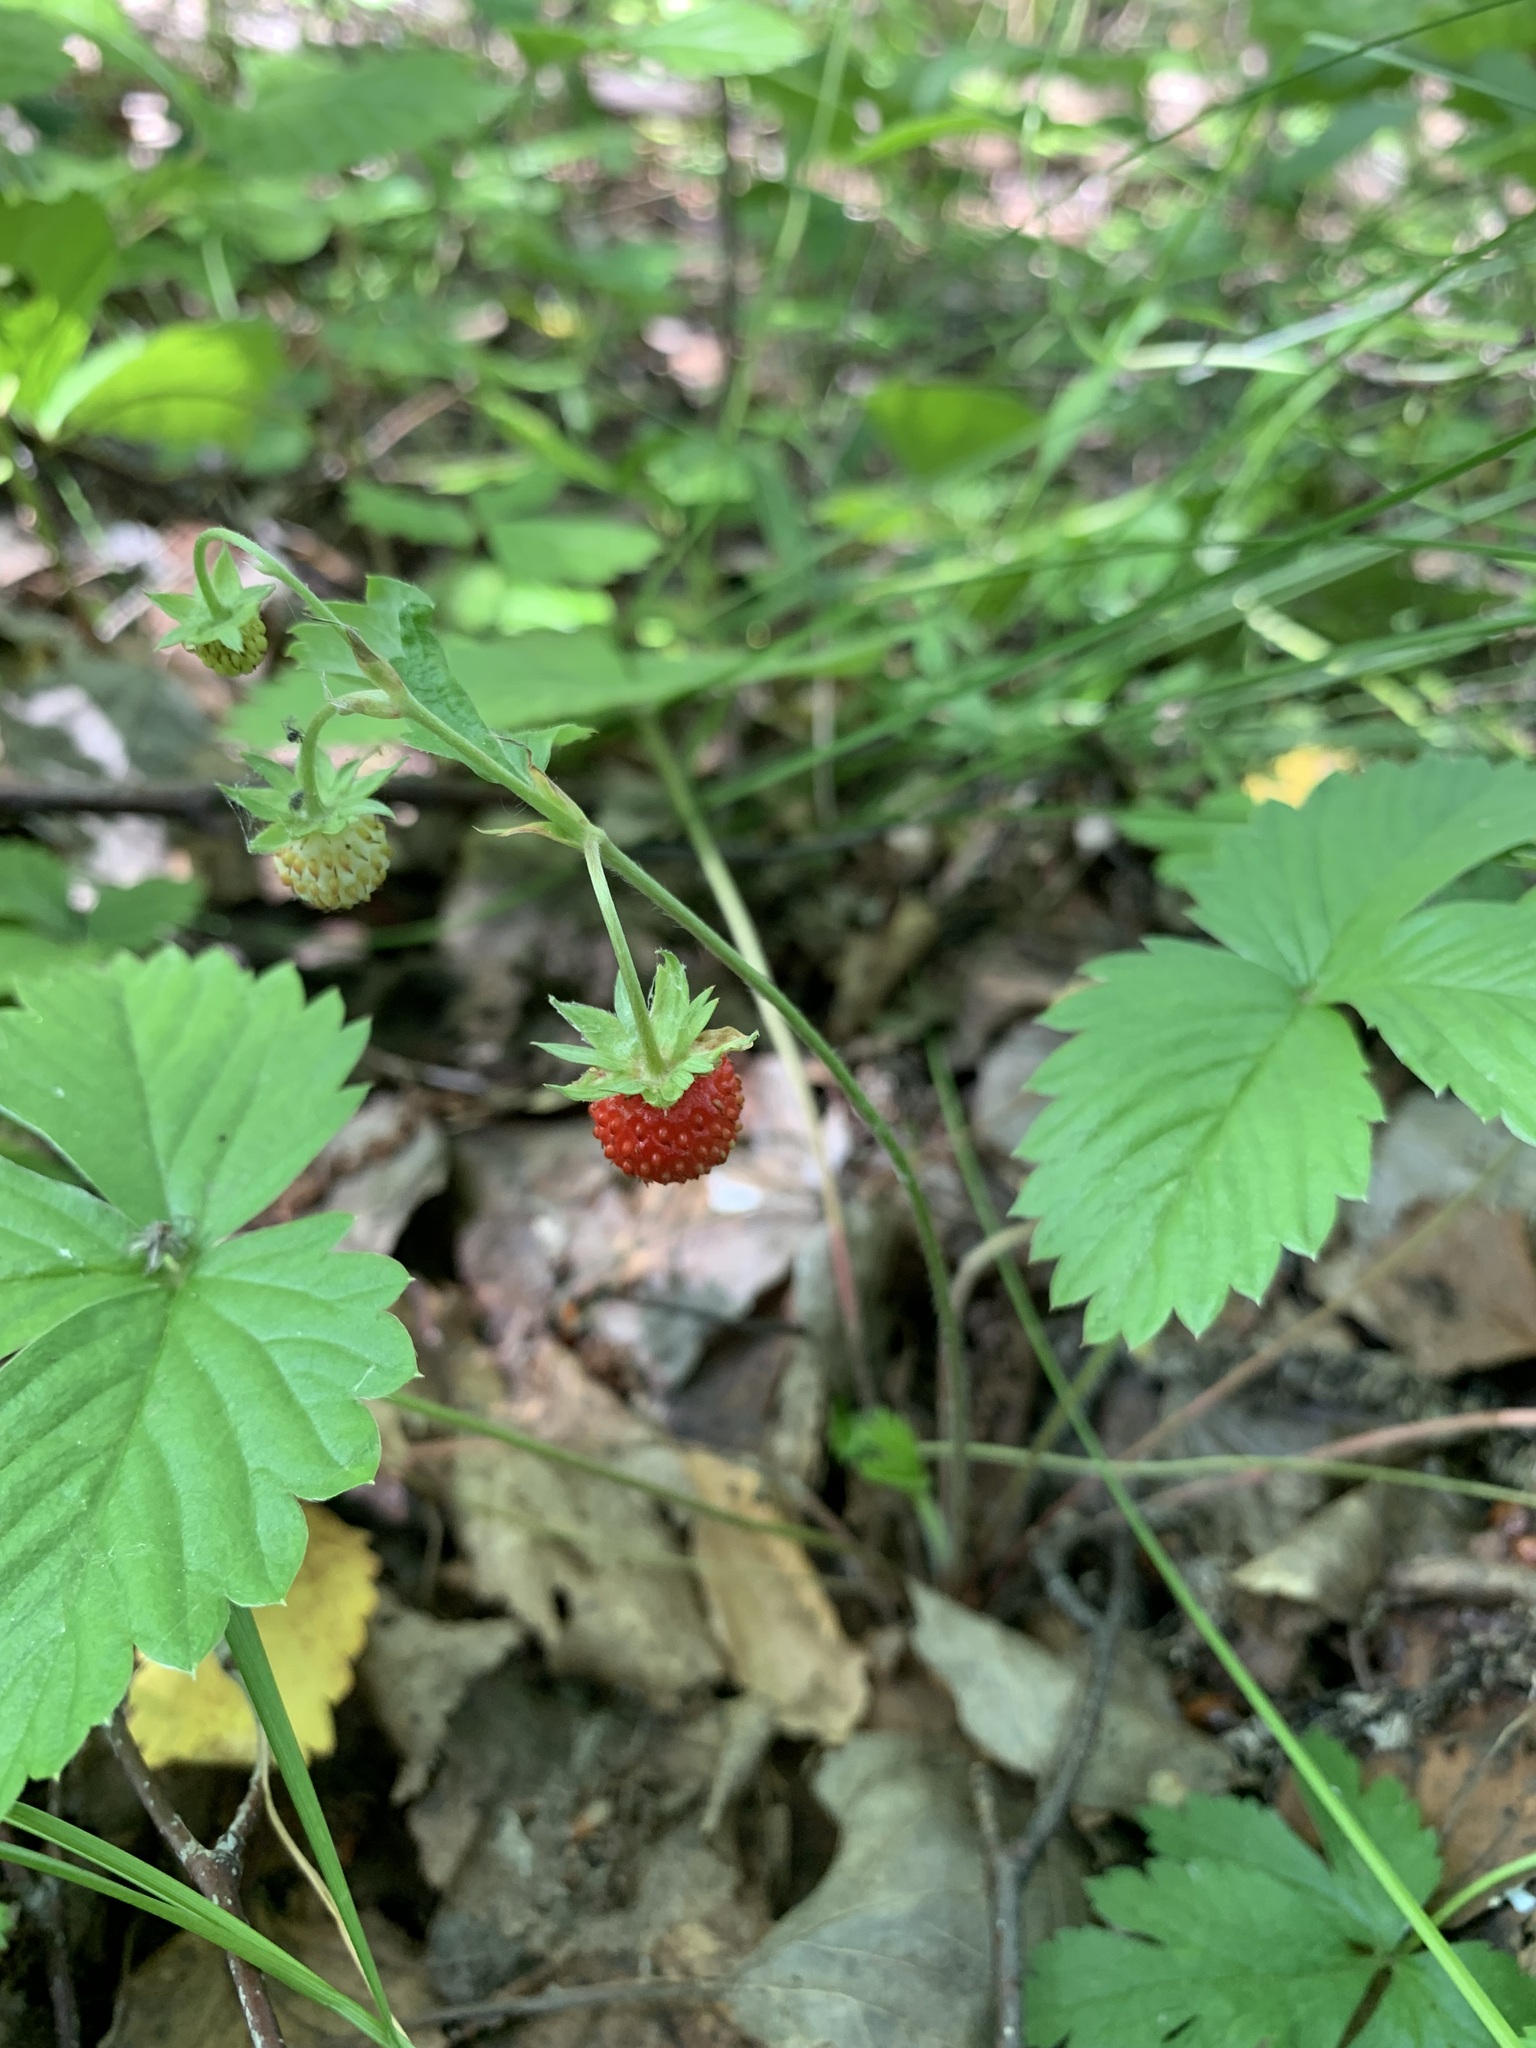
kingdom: Plantae
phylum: Tracheophyta
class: Magnoliopsida
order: Rosales
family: Rosaceae
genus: Fragaria
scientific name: Fragaria vesca
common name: Wild strawberry
